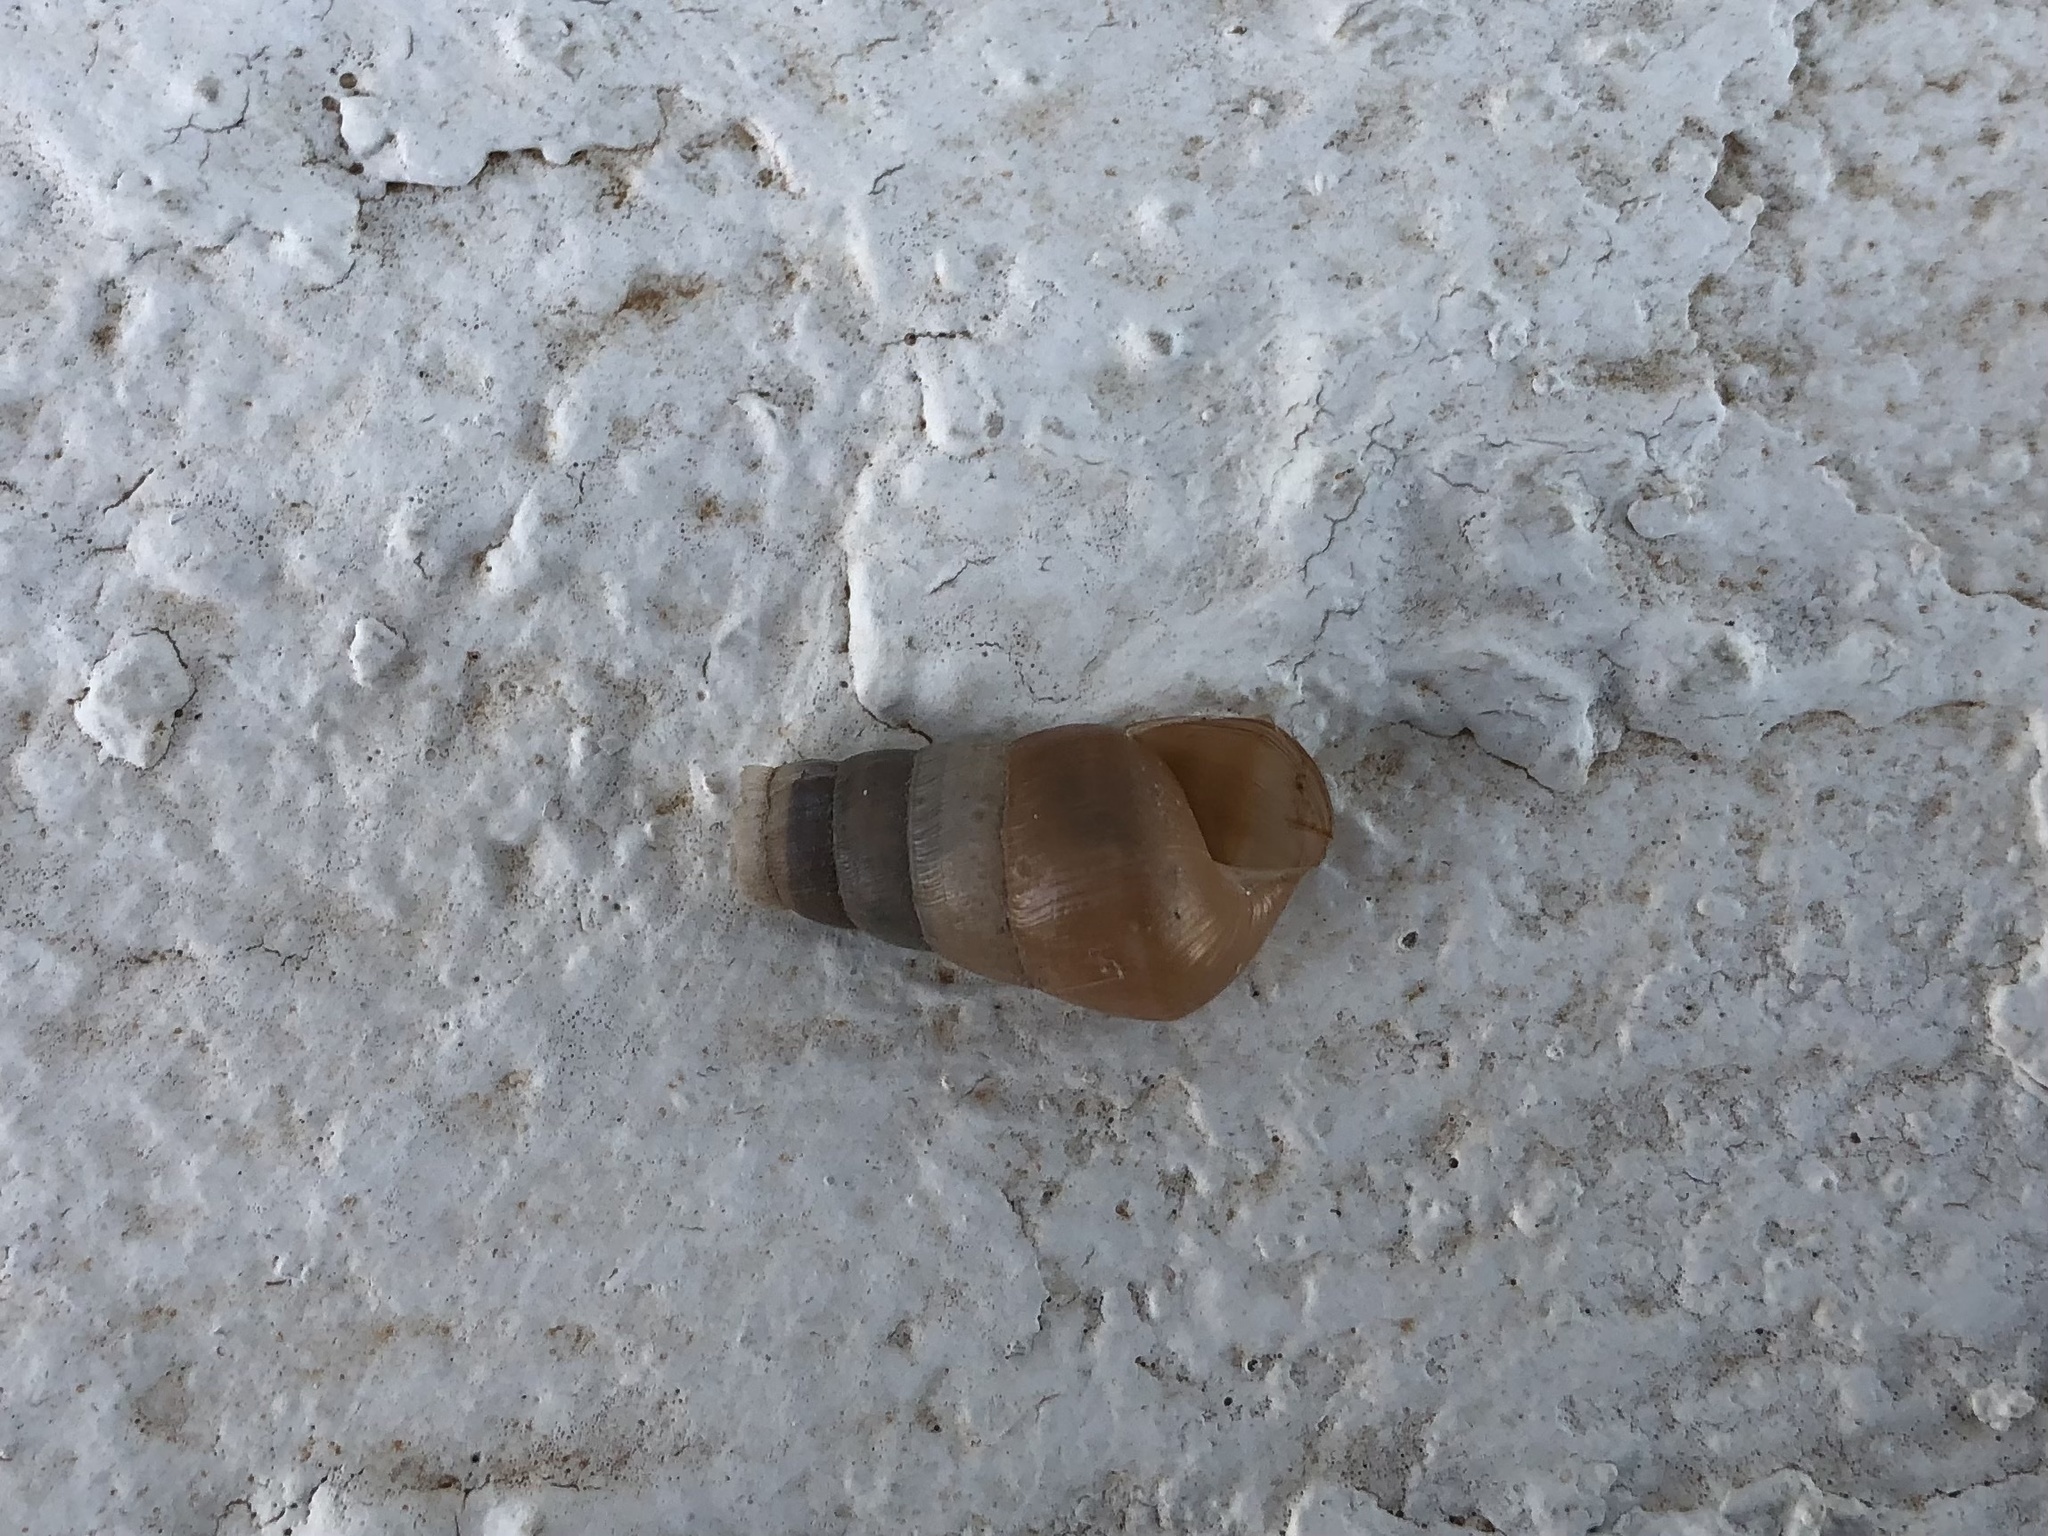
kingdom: Animalia
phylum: Mollusca
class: Gastropoda
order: Stylommatophora
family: Achatinidae
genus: Rumina
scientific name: Rumina decollata
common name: Decollate snail
